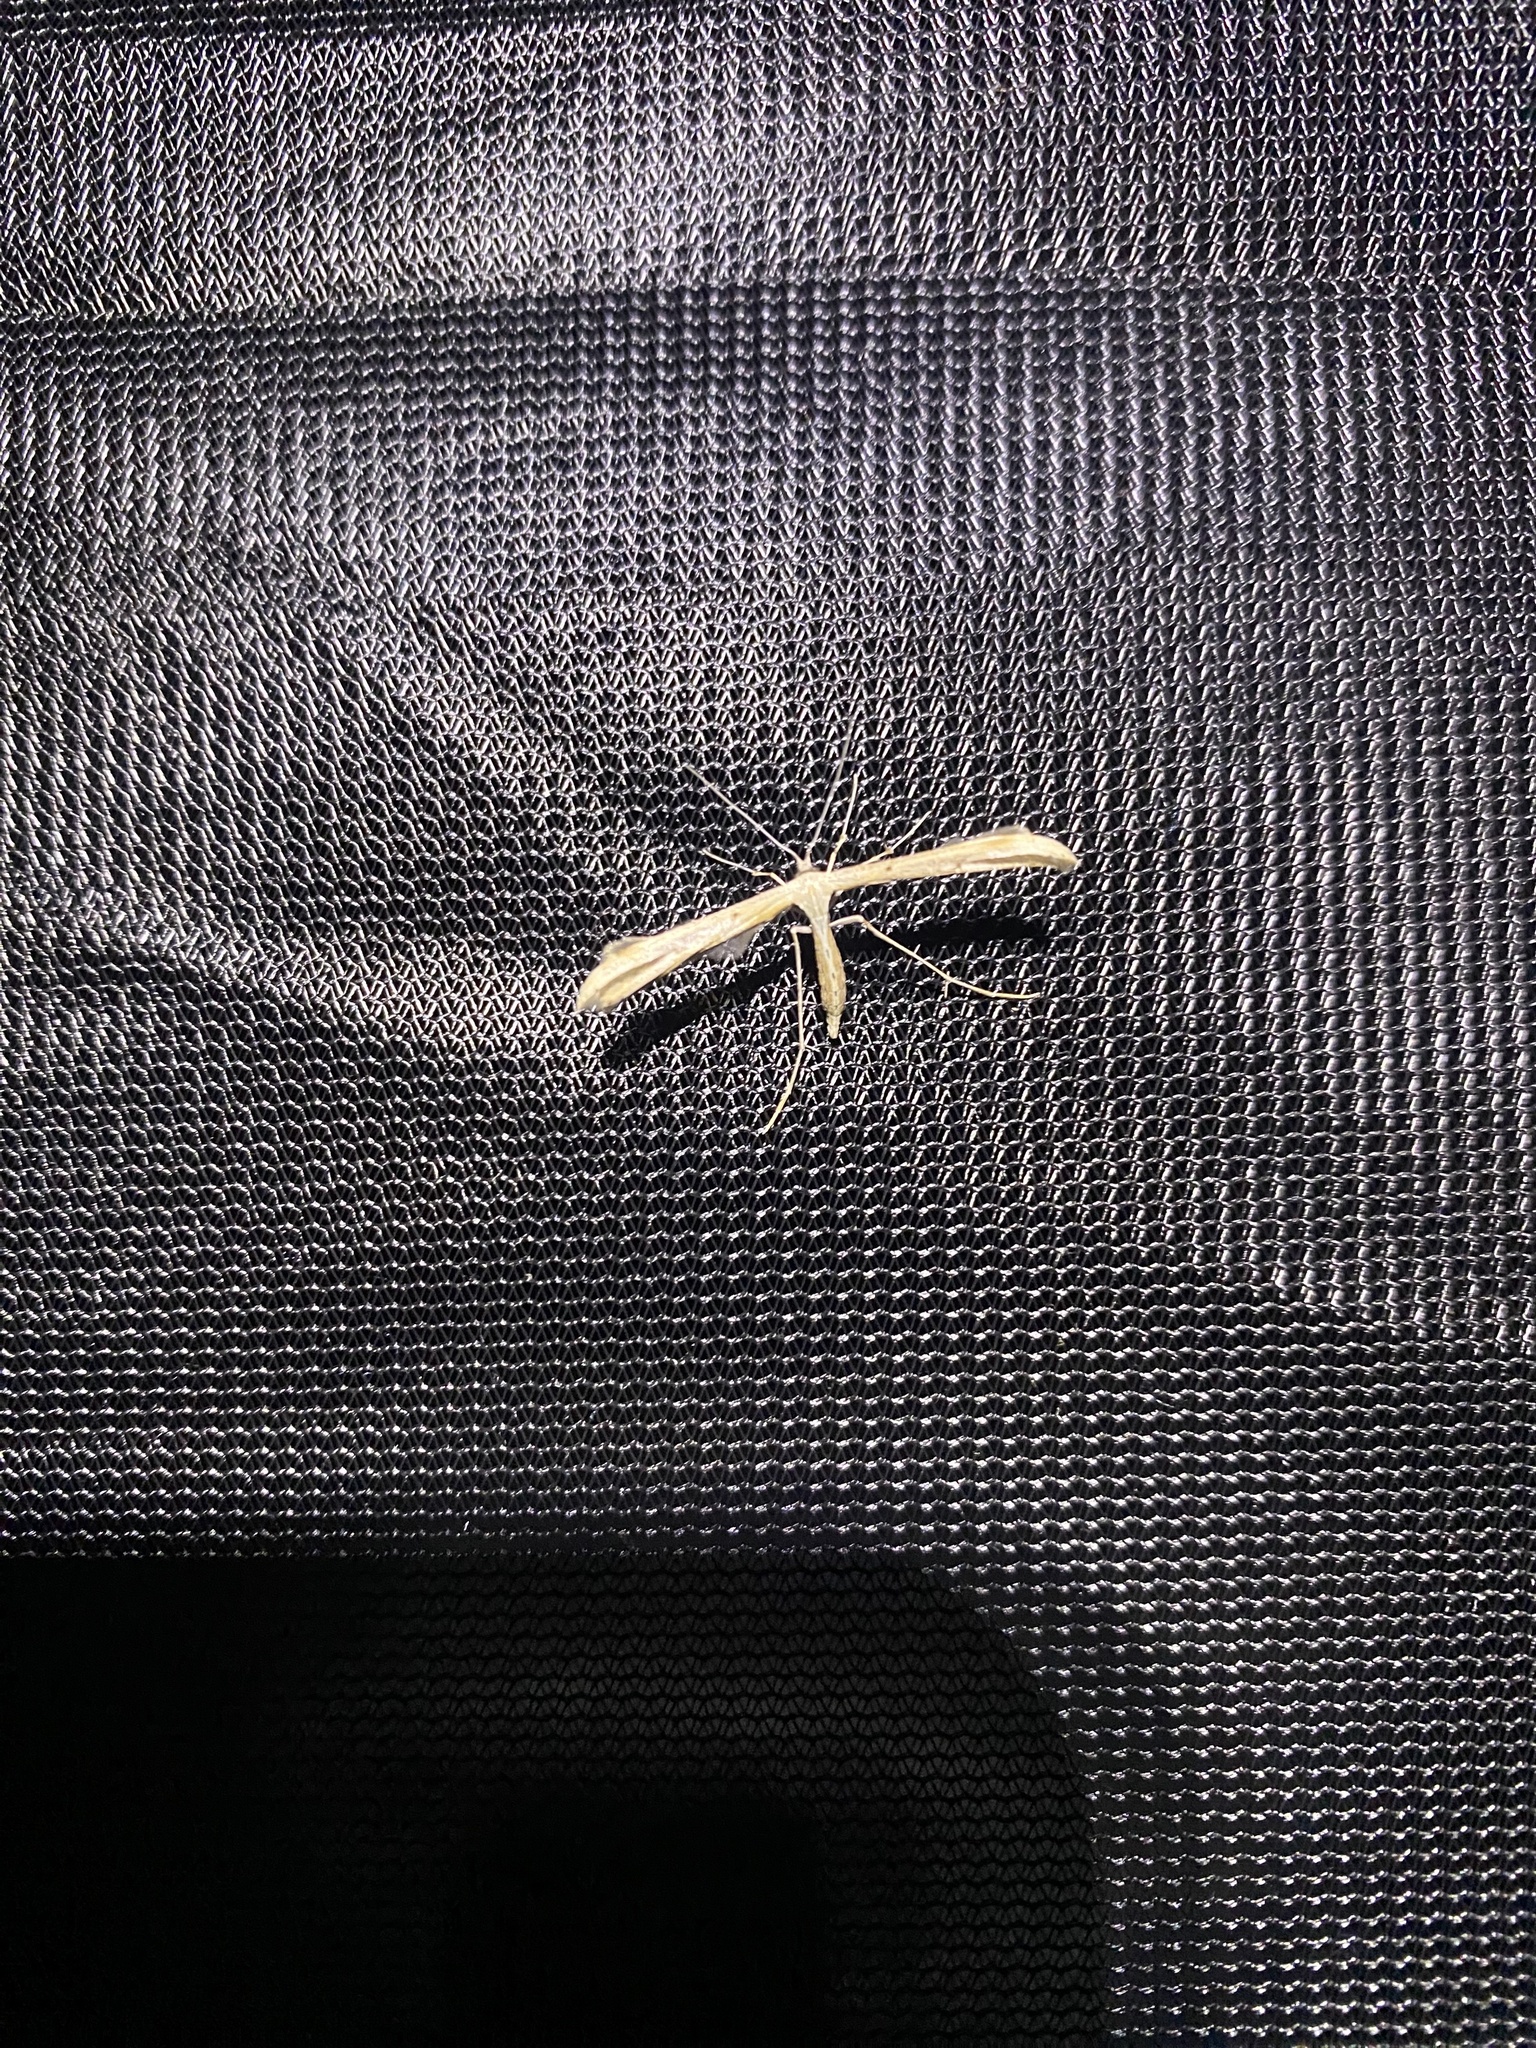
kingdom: Animalia
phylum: Arthropoda
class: Insecta
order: Lepidoptera
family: Pterophoridae
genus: Emmelina
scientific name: Emmelina monodactyla
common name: Common plume
